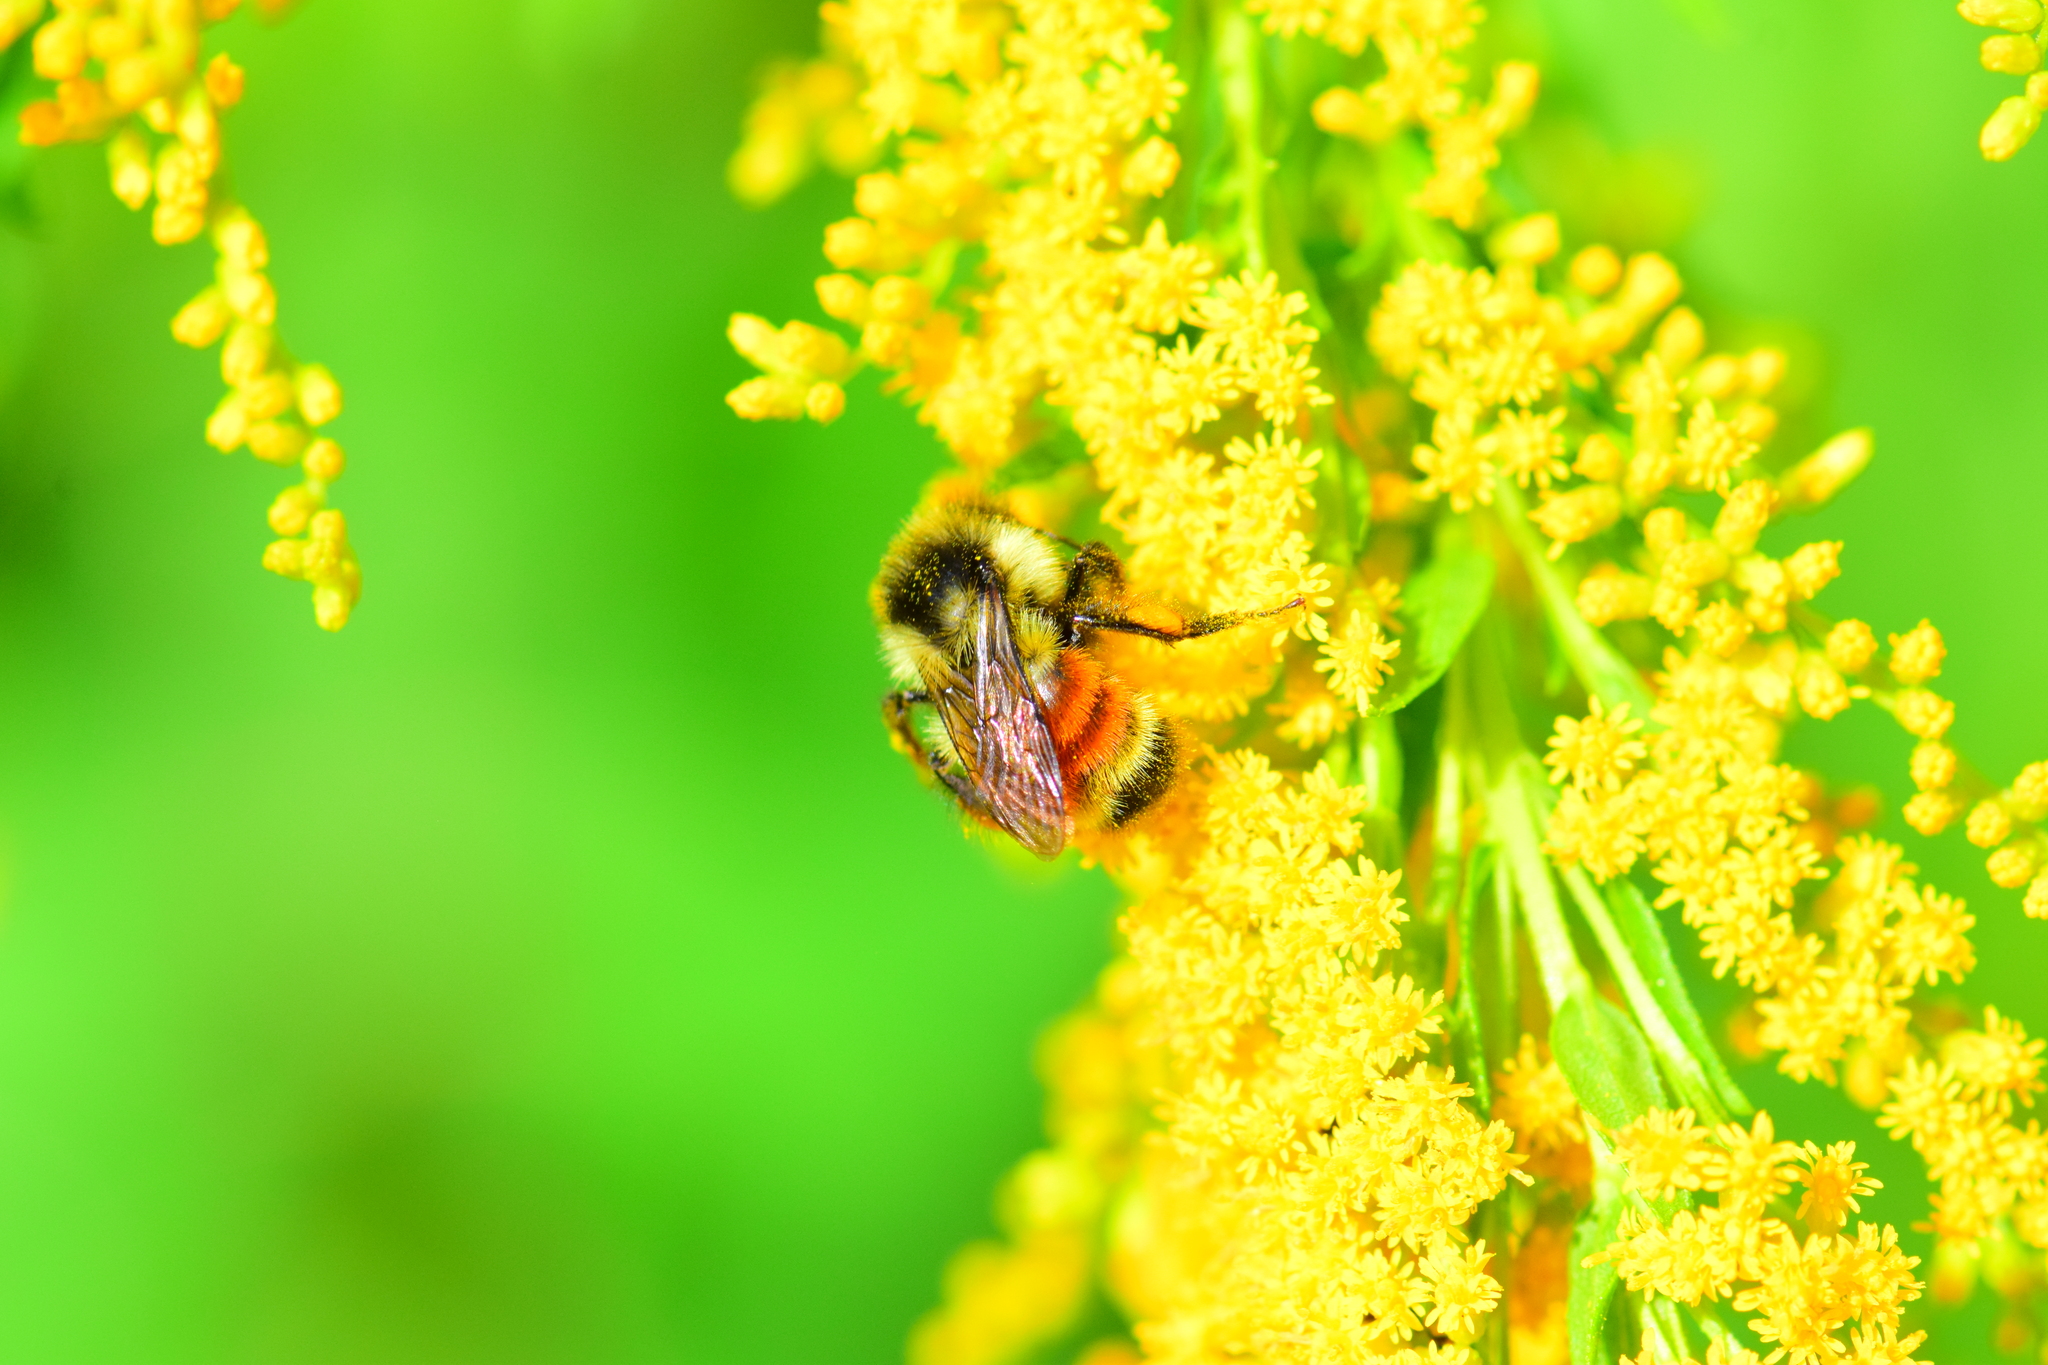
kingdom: Animalia
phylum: Arthropoda
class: Insecta
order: Hymenoptera
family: Apidae
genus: Bombus
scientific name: Bombus ternarius
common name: Tri-colored bumble bee
